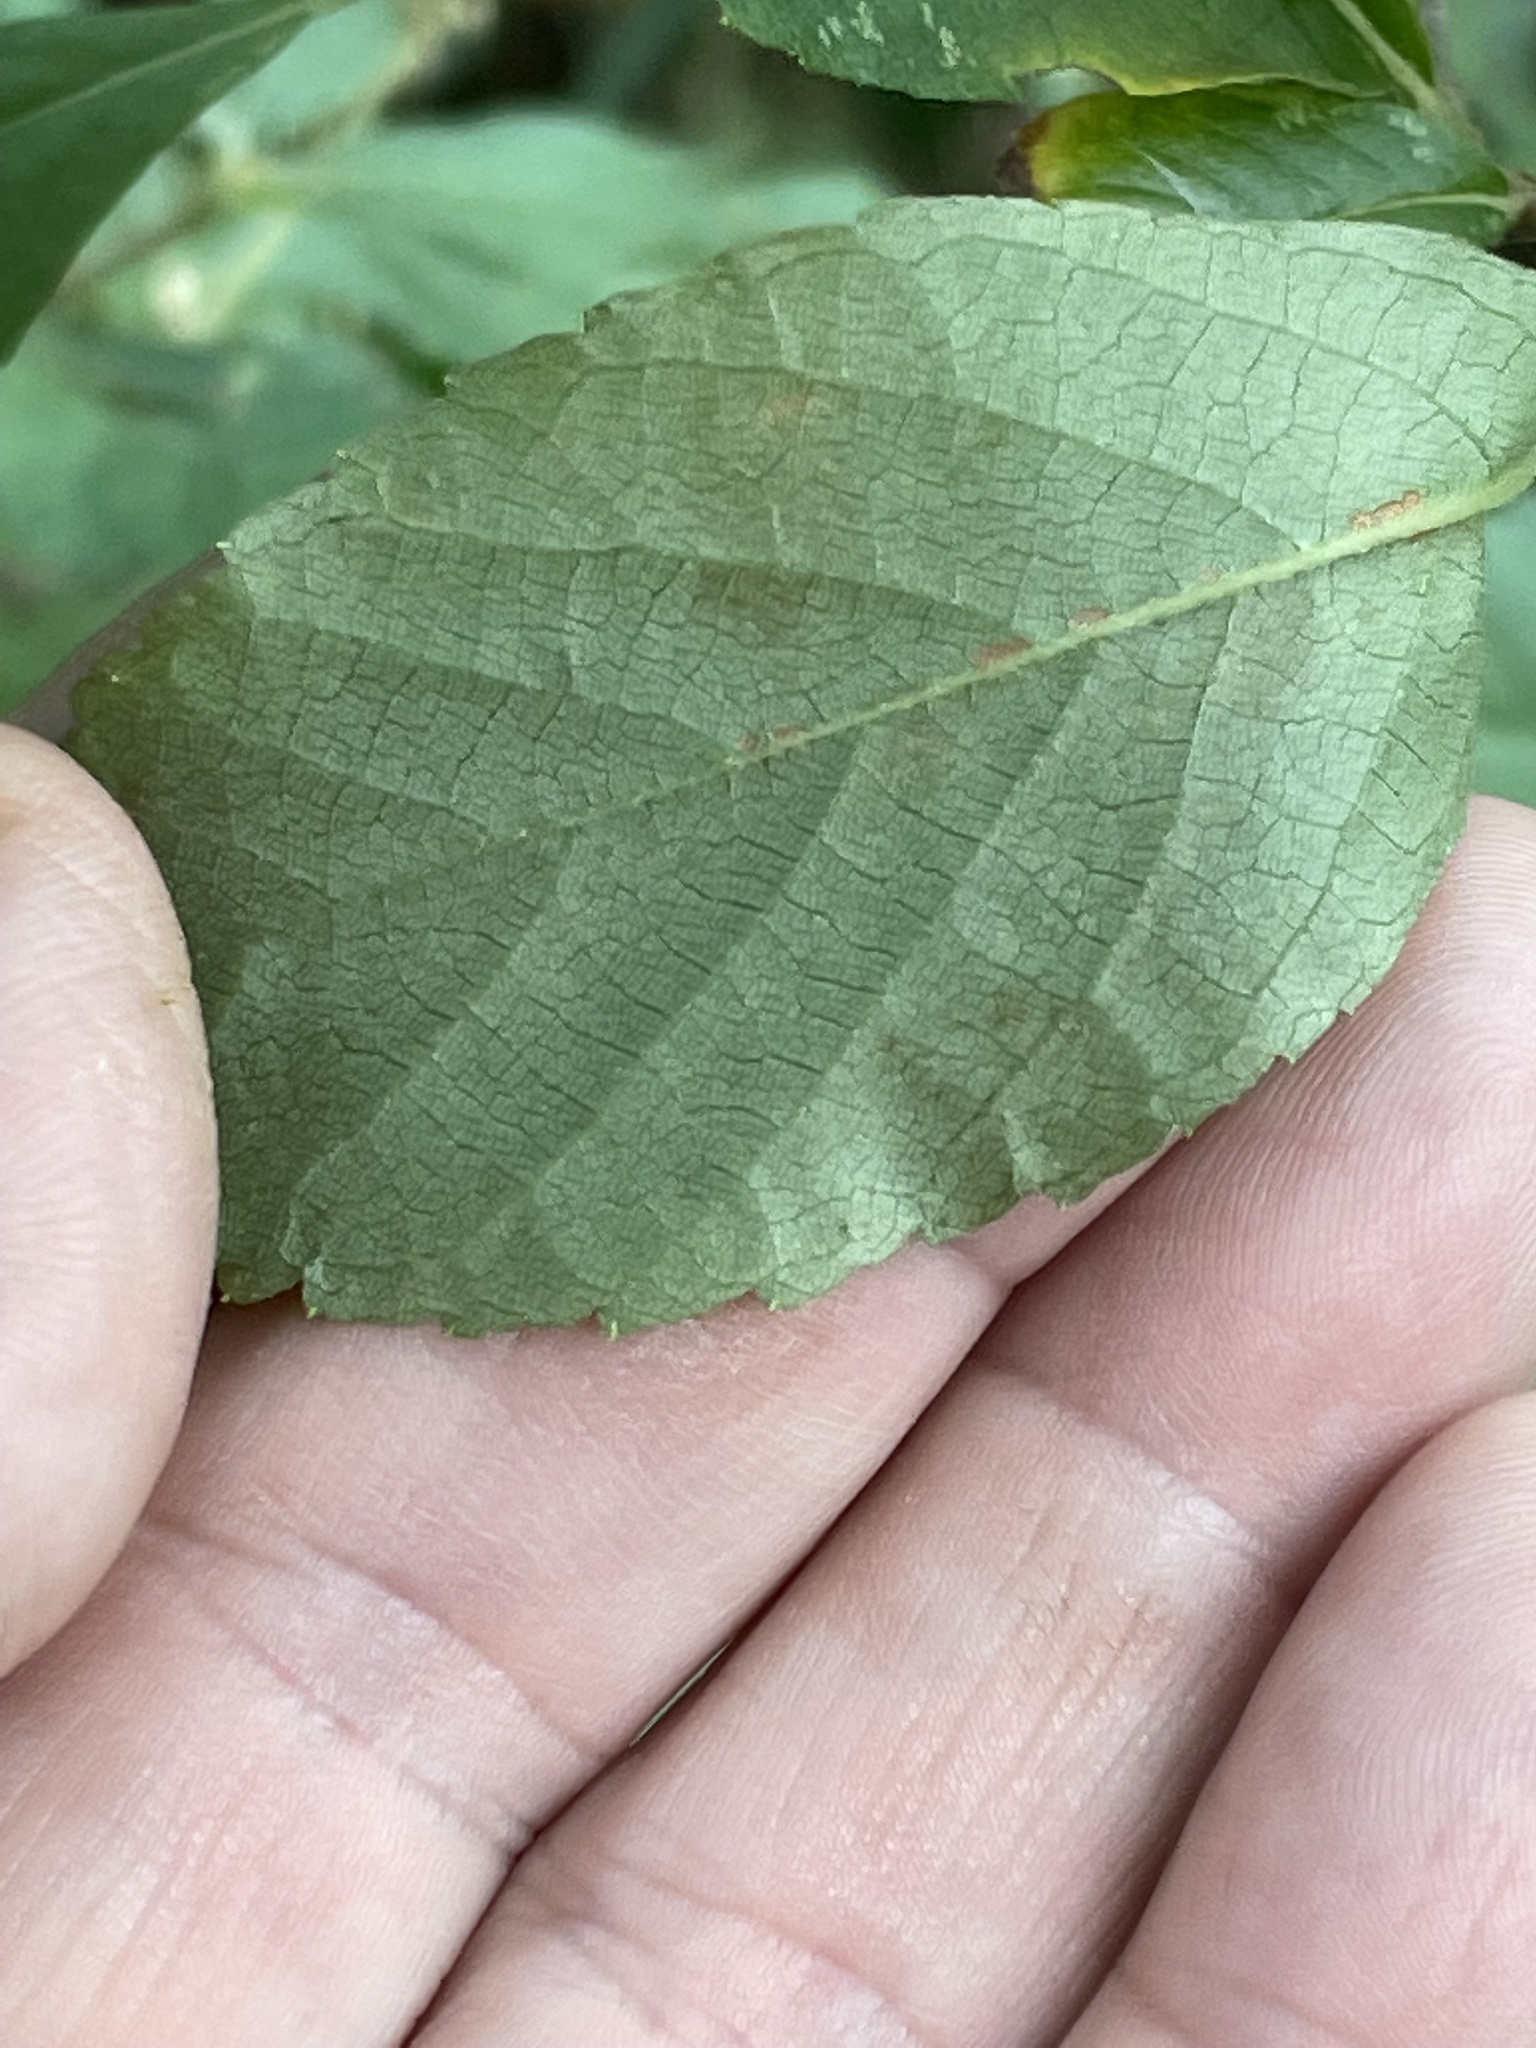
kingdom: Plantae
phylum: Tracheophyta
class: Magnoliopsida
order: Ericales
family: Clethraceae
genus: Clethra
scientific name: Clethra alnifolia
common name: Sweet pepperbush
